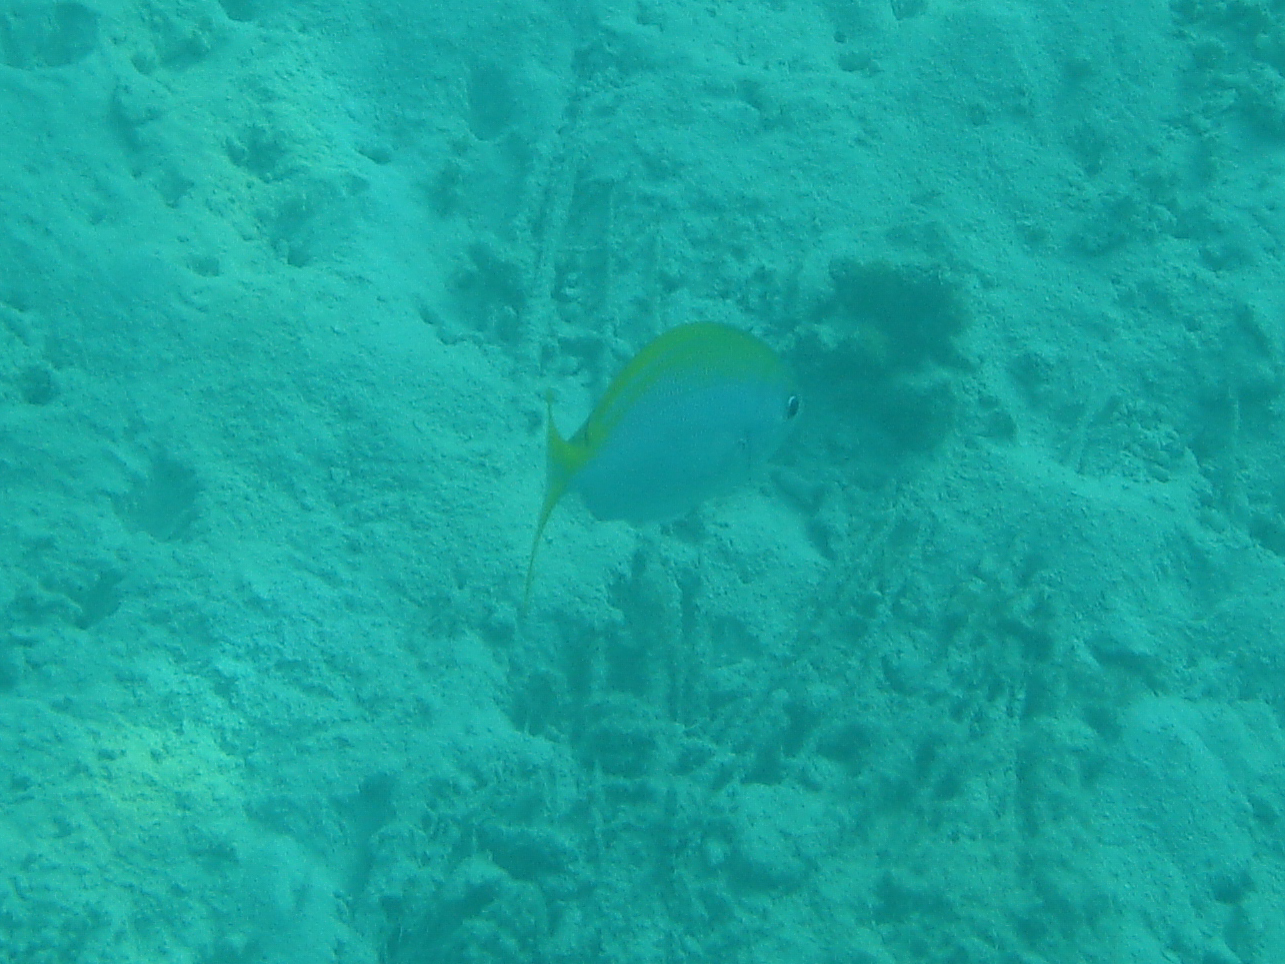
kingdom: Animalia
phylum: Chordata
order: Perciformes
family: Caesionidae
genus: Caesio
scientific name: Caesio xanthonota
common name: Yellowback fusilier
